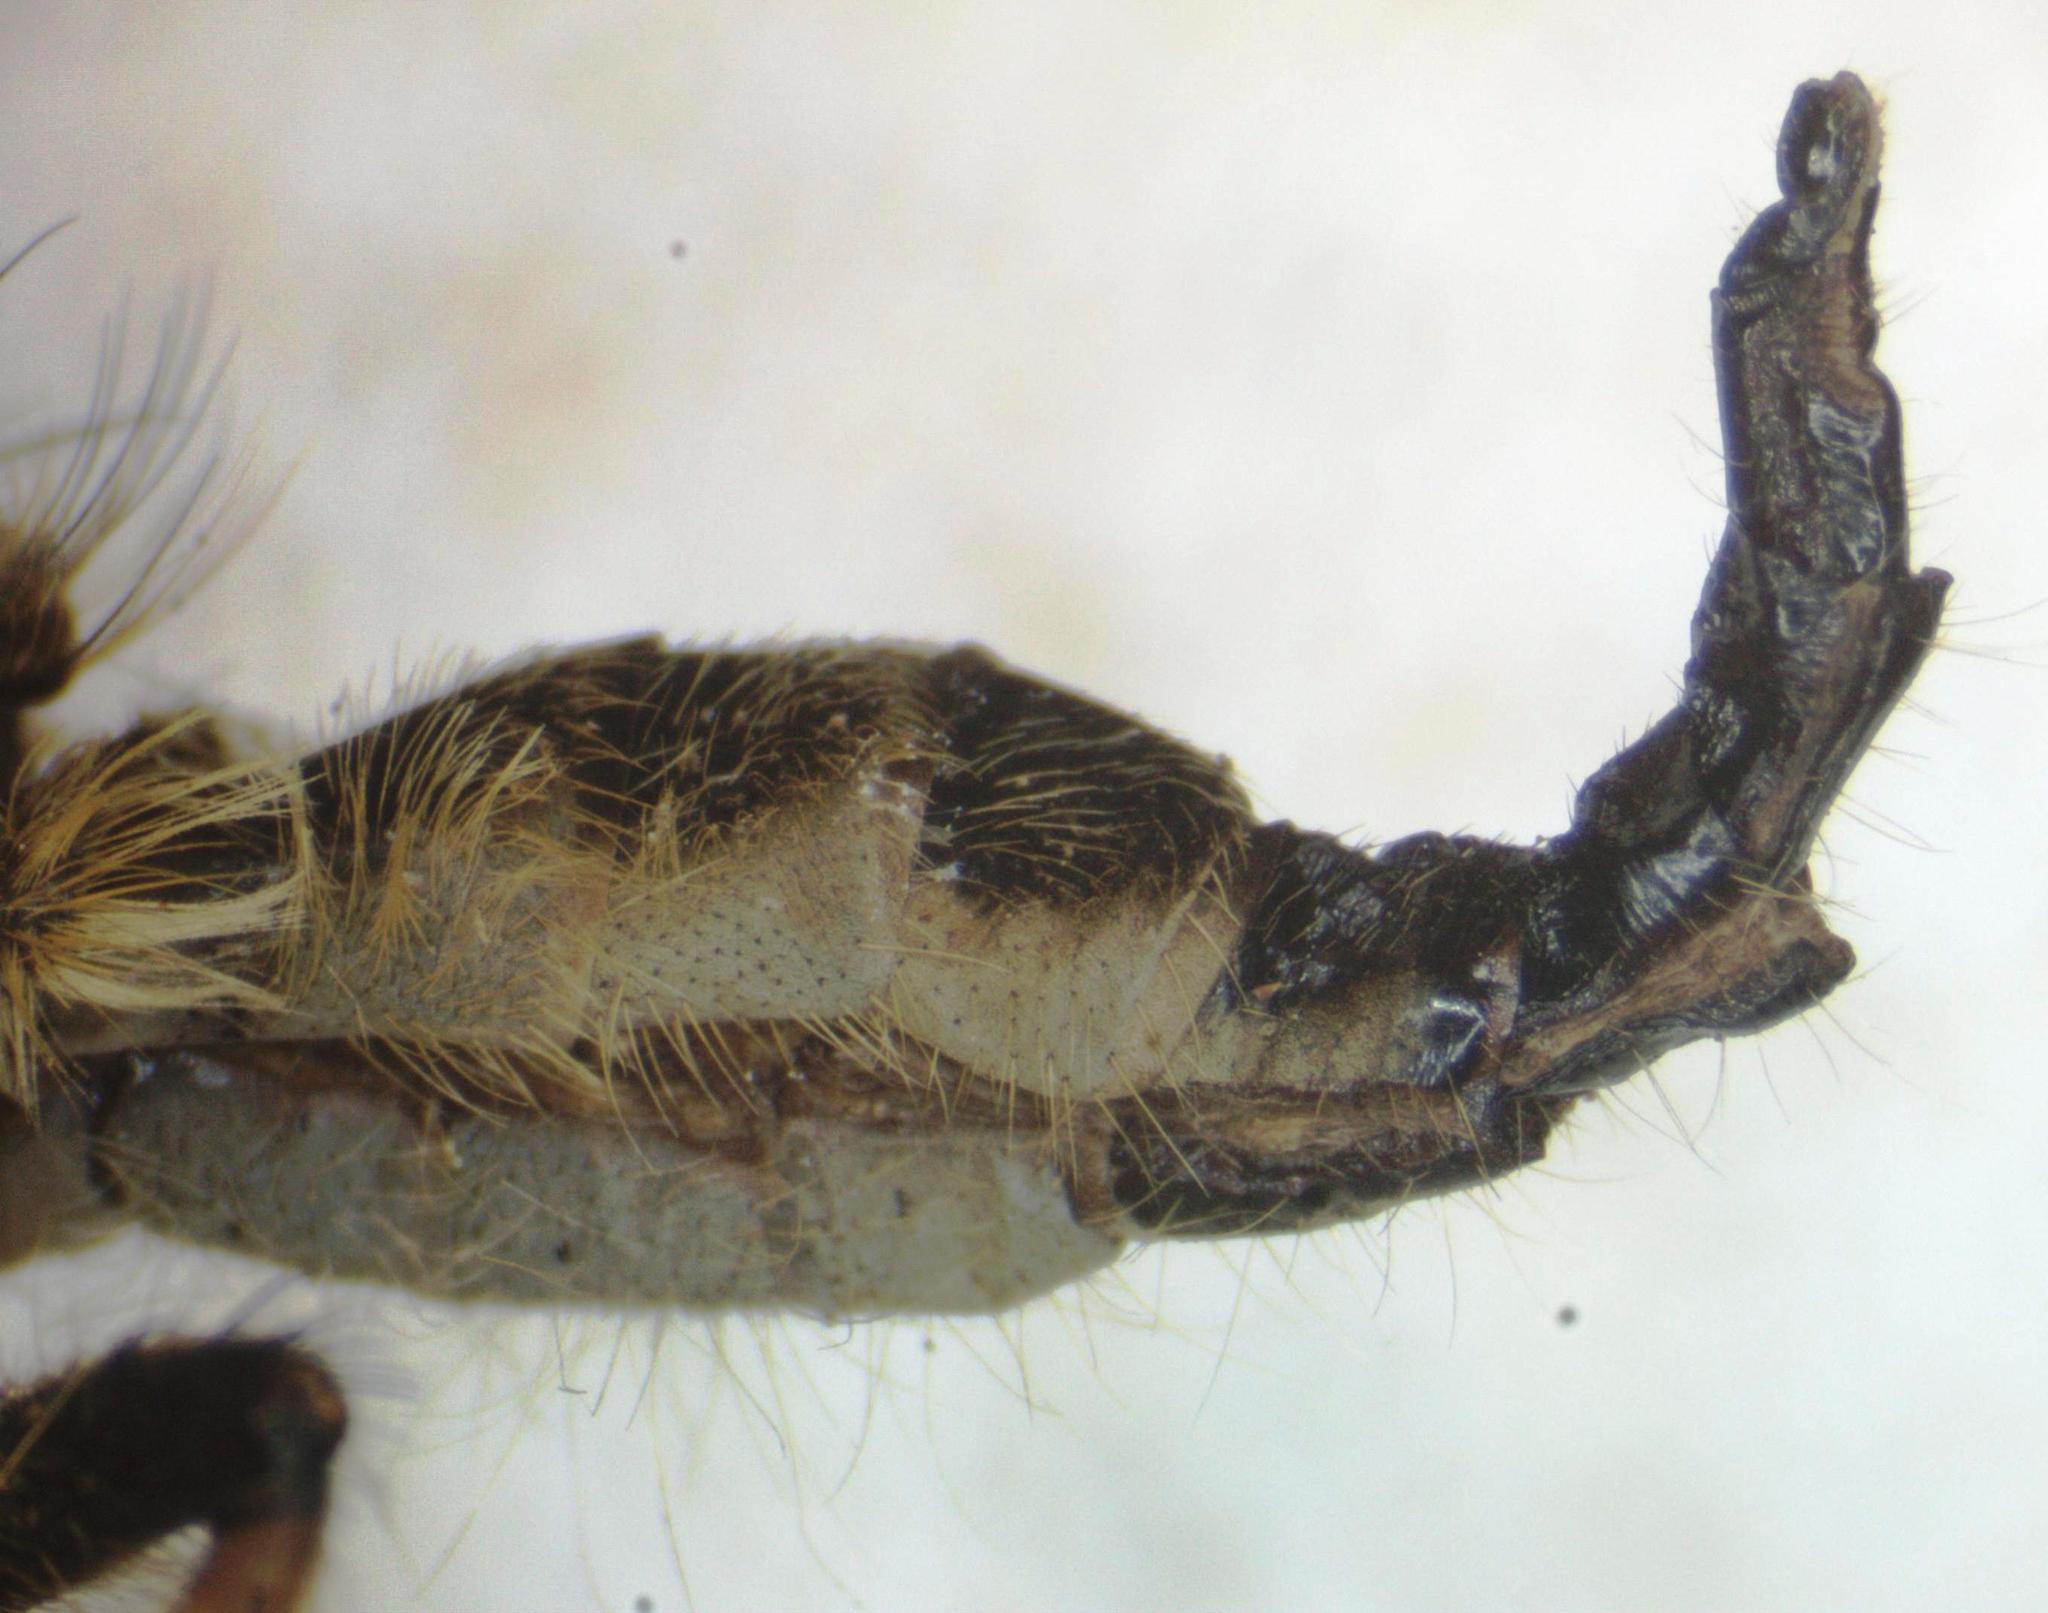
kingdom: Animalia
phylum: Arthropoda
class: Insecta
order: Diptera
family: Asilidae
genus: Amblyonychus
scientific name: Amblyonychus trapezoidalis
